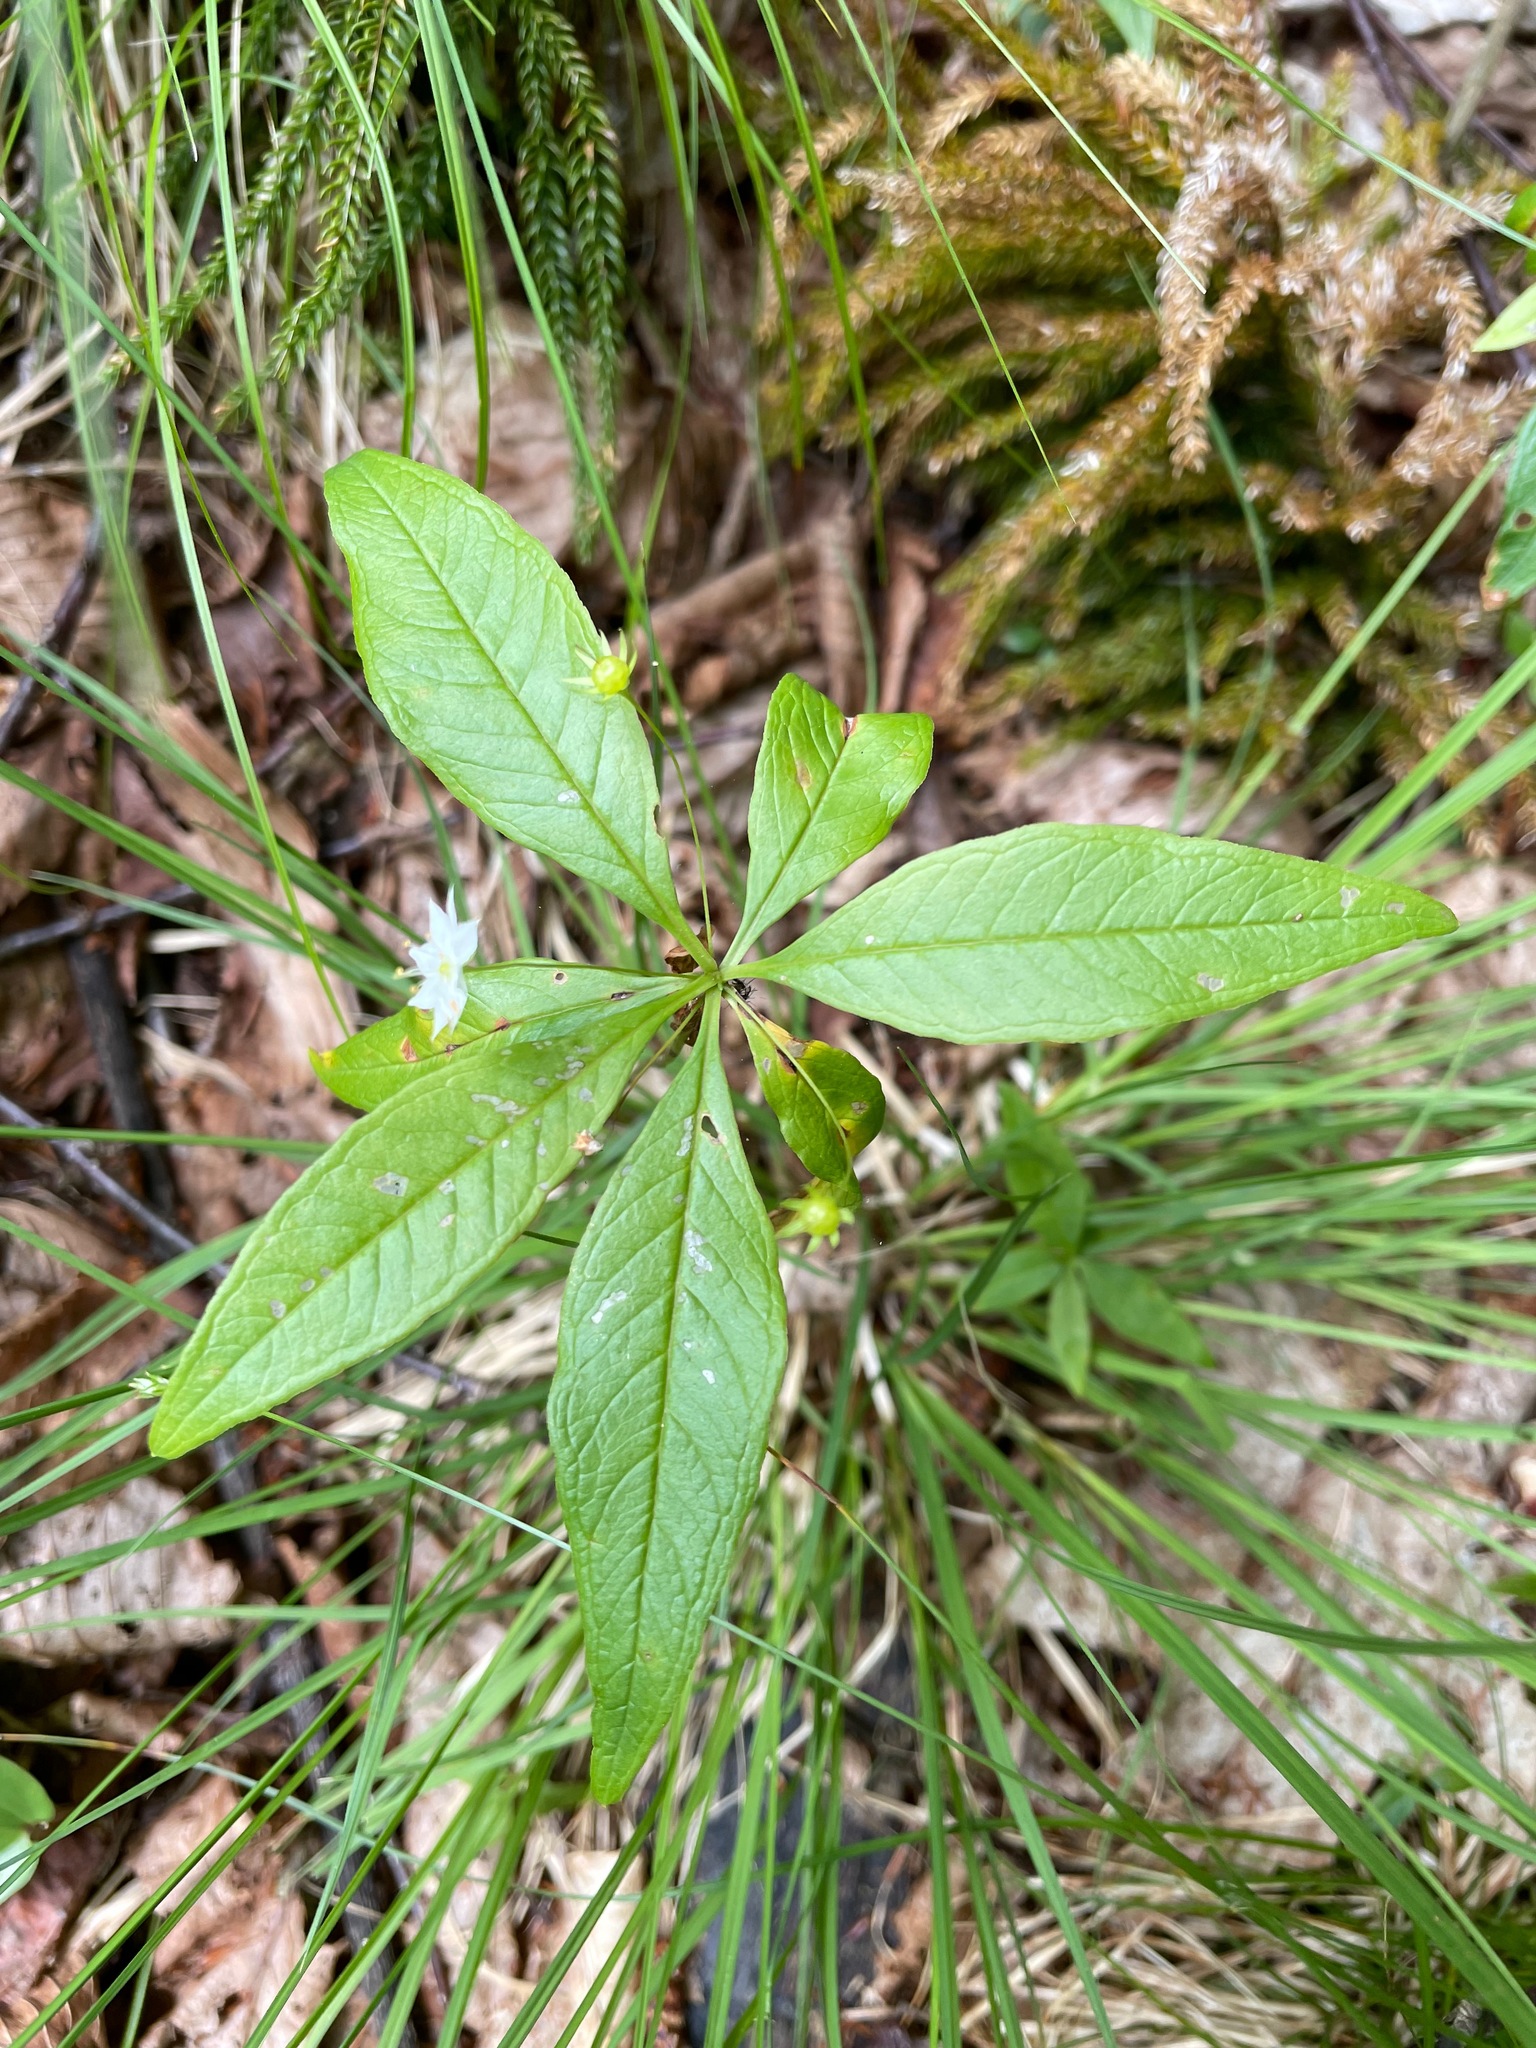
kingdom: Plantae
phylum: Tracheophyta
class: Magnoliopsida
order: Ericales
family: Primulaceae
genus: Lysimachia
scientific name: Lysimachia borealis
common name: American starflower
